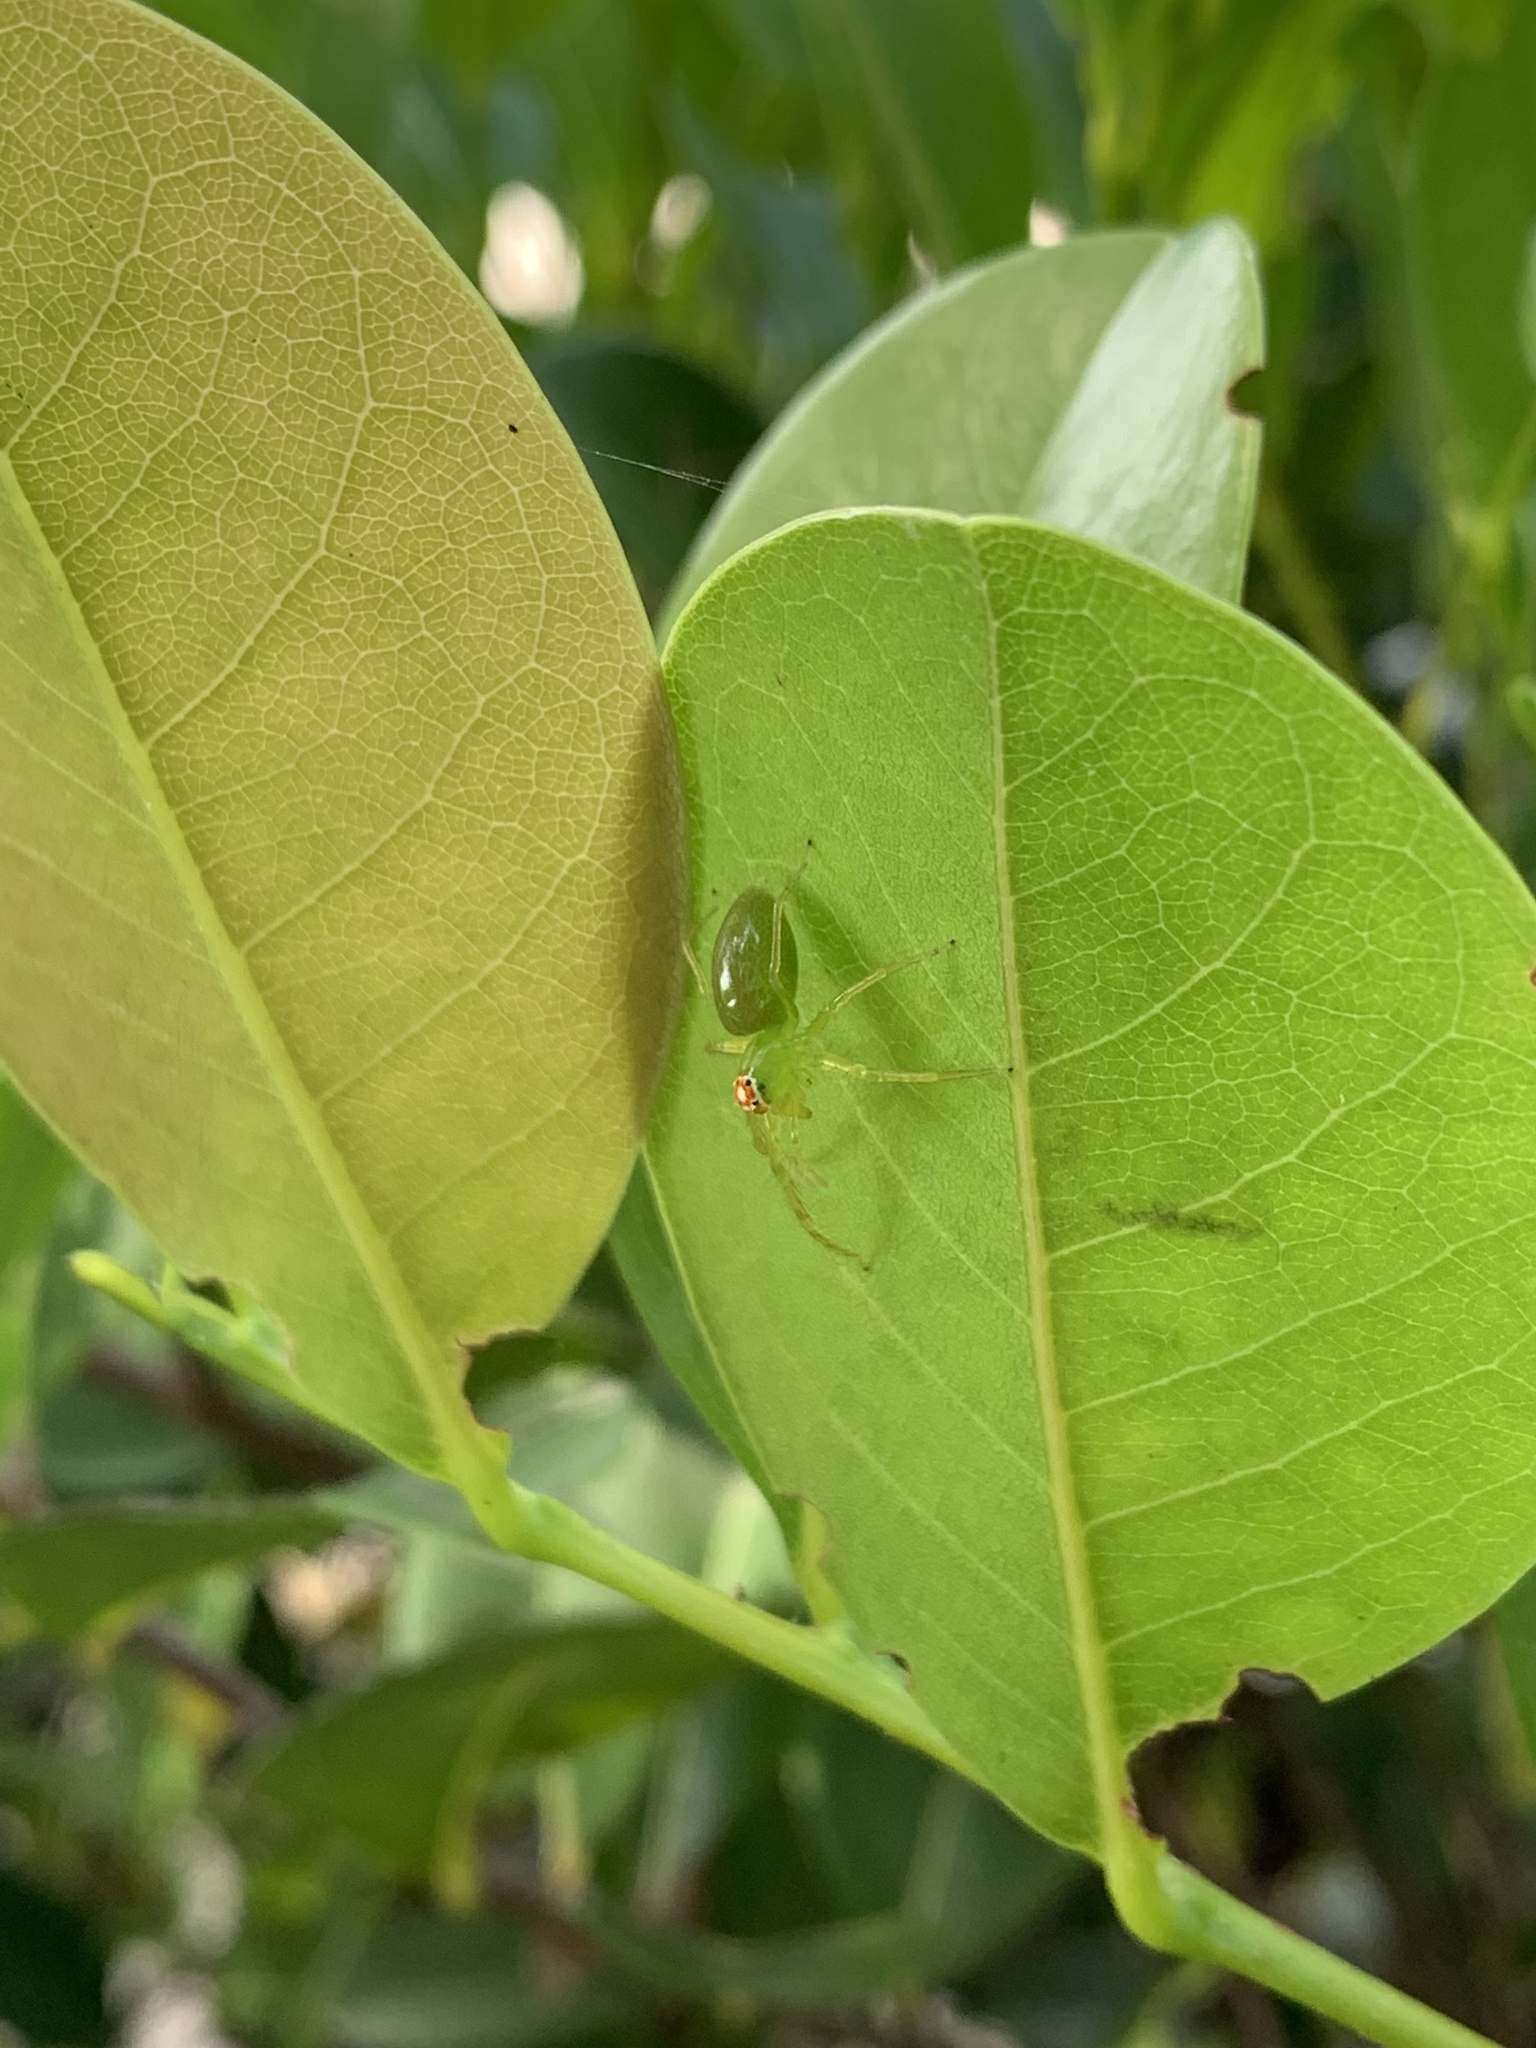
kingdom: Animalia
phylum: Arthropoda
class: Arachnida
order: Araneae
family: Salticidae
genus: Lyssomanes
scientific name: Lyssomanes viridis
